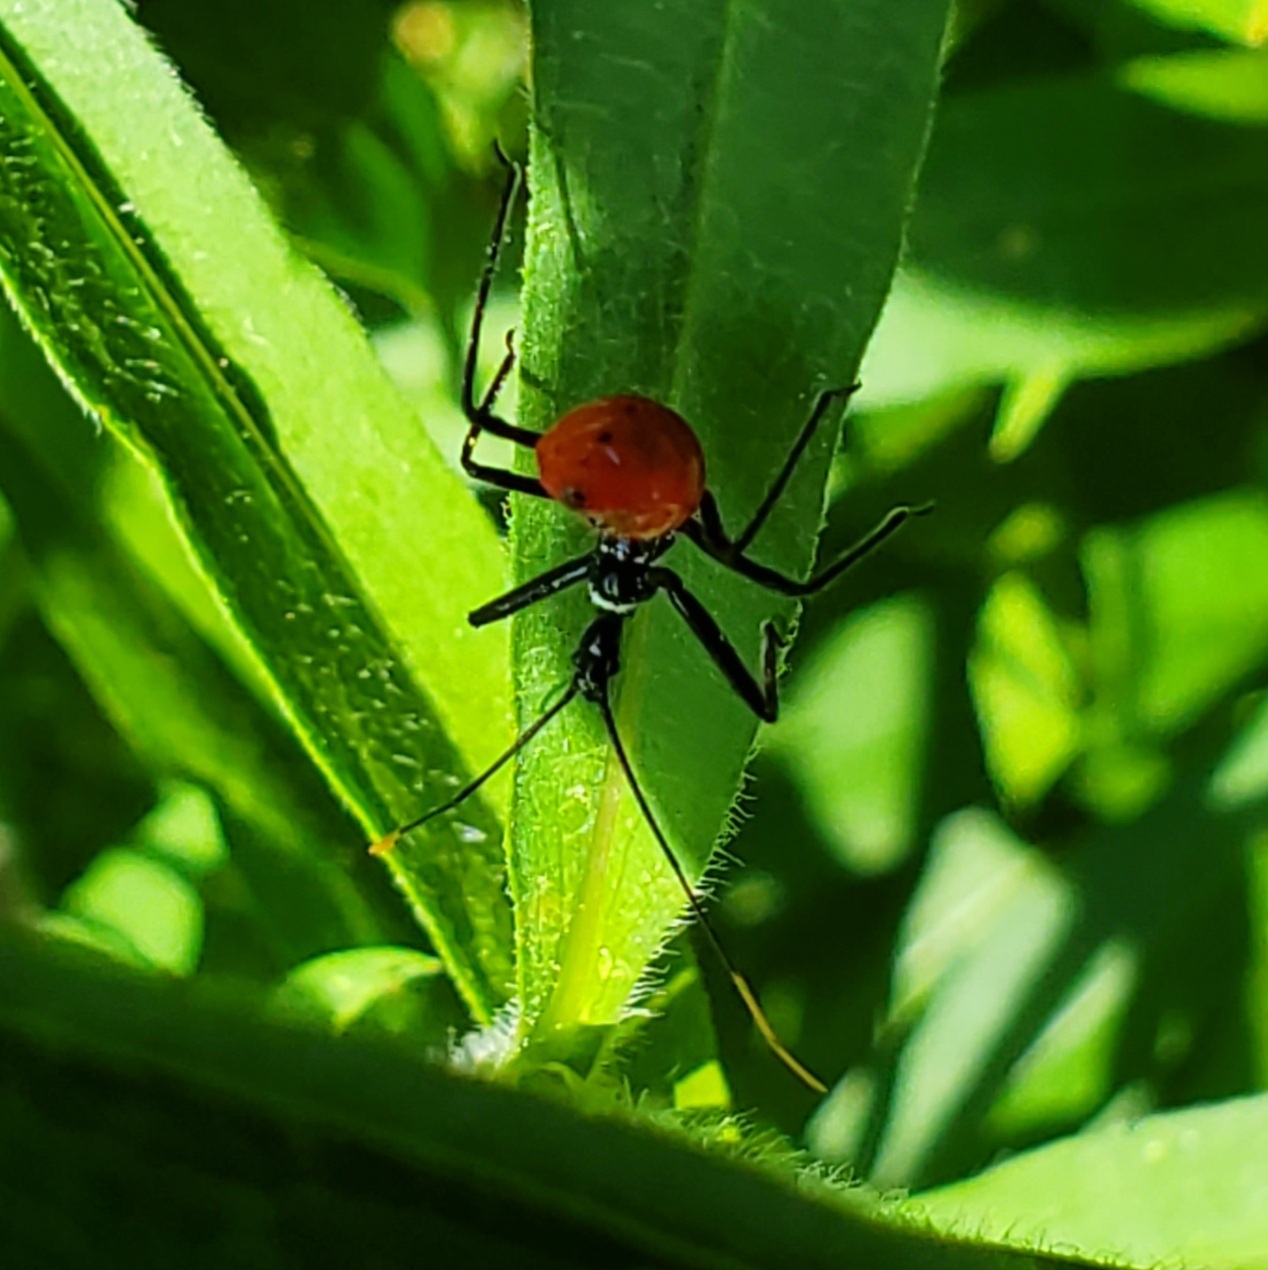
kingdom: Animalia
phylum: Arthropoda
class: Insecta
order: Hemiptera
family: Reduviidae
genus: Arilus
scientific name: Arilus cristatus
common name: North american wheel bug
